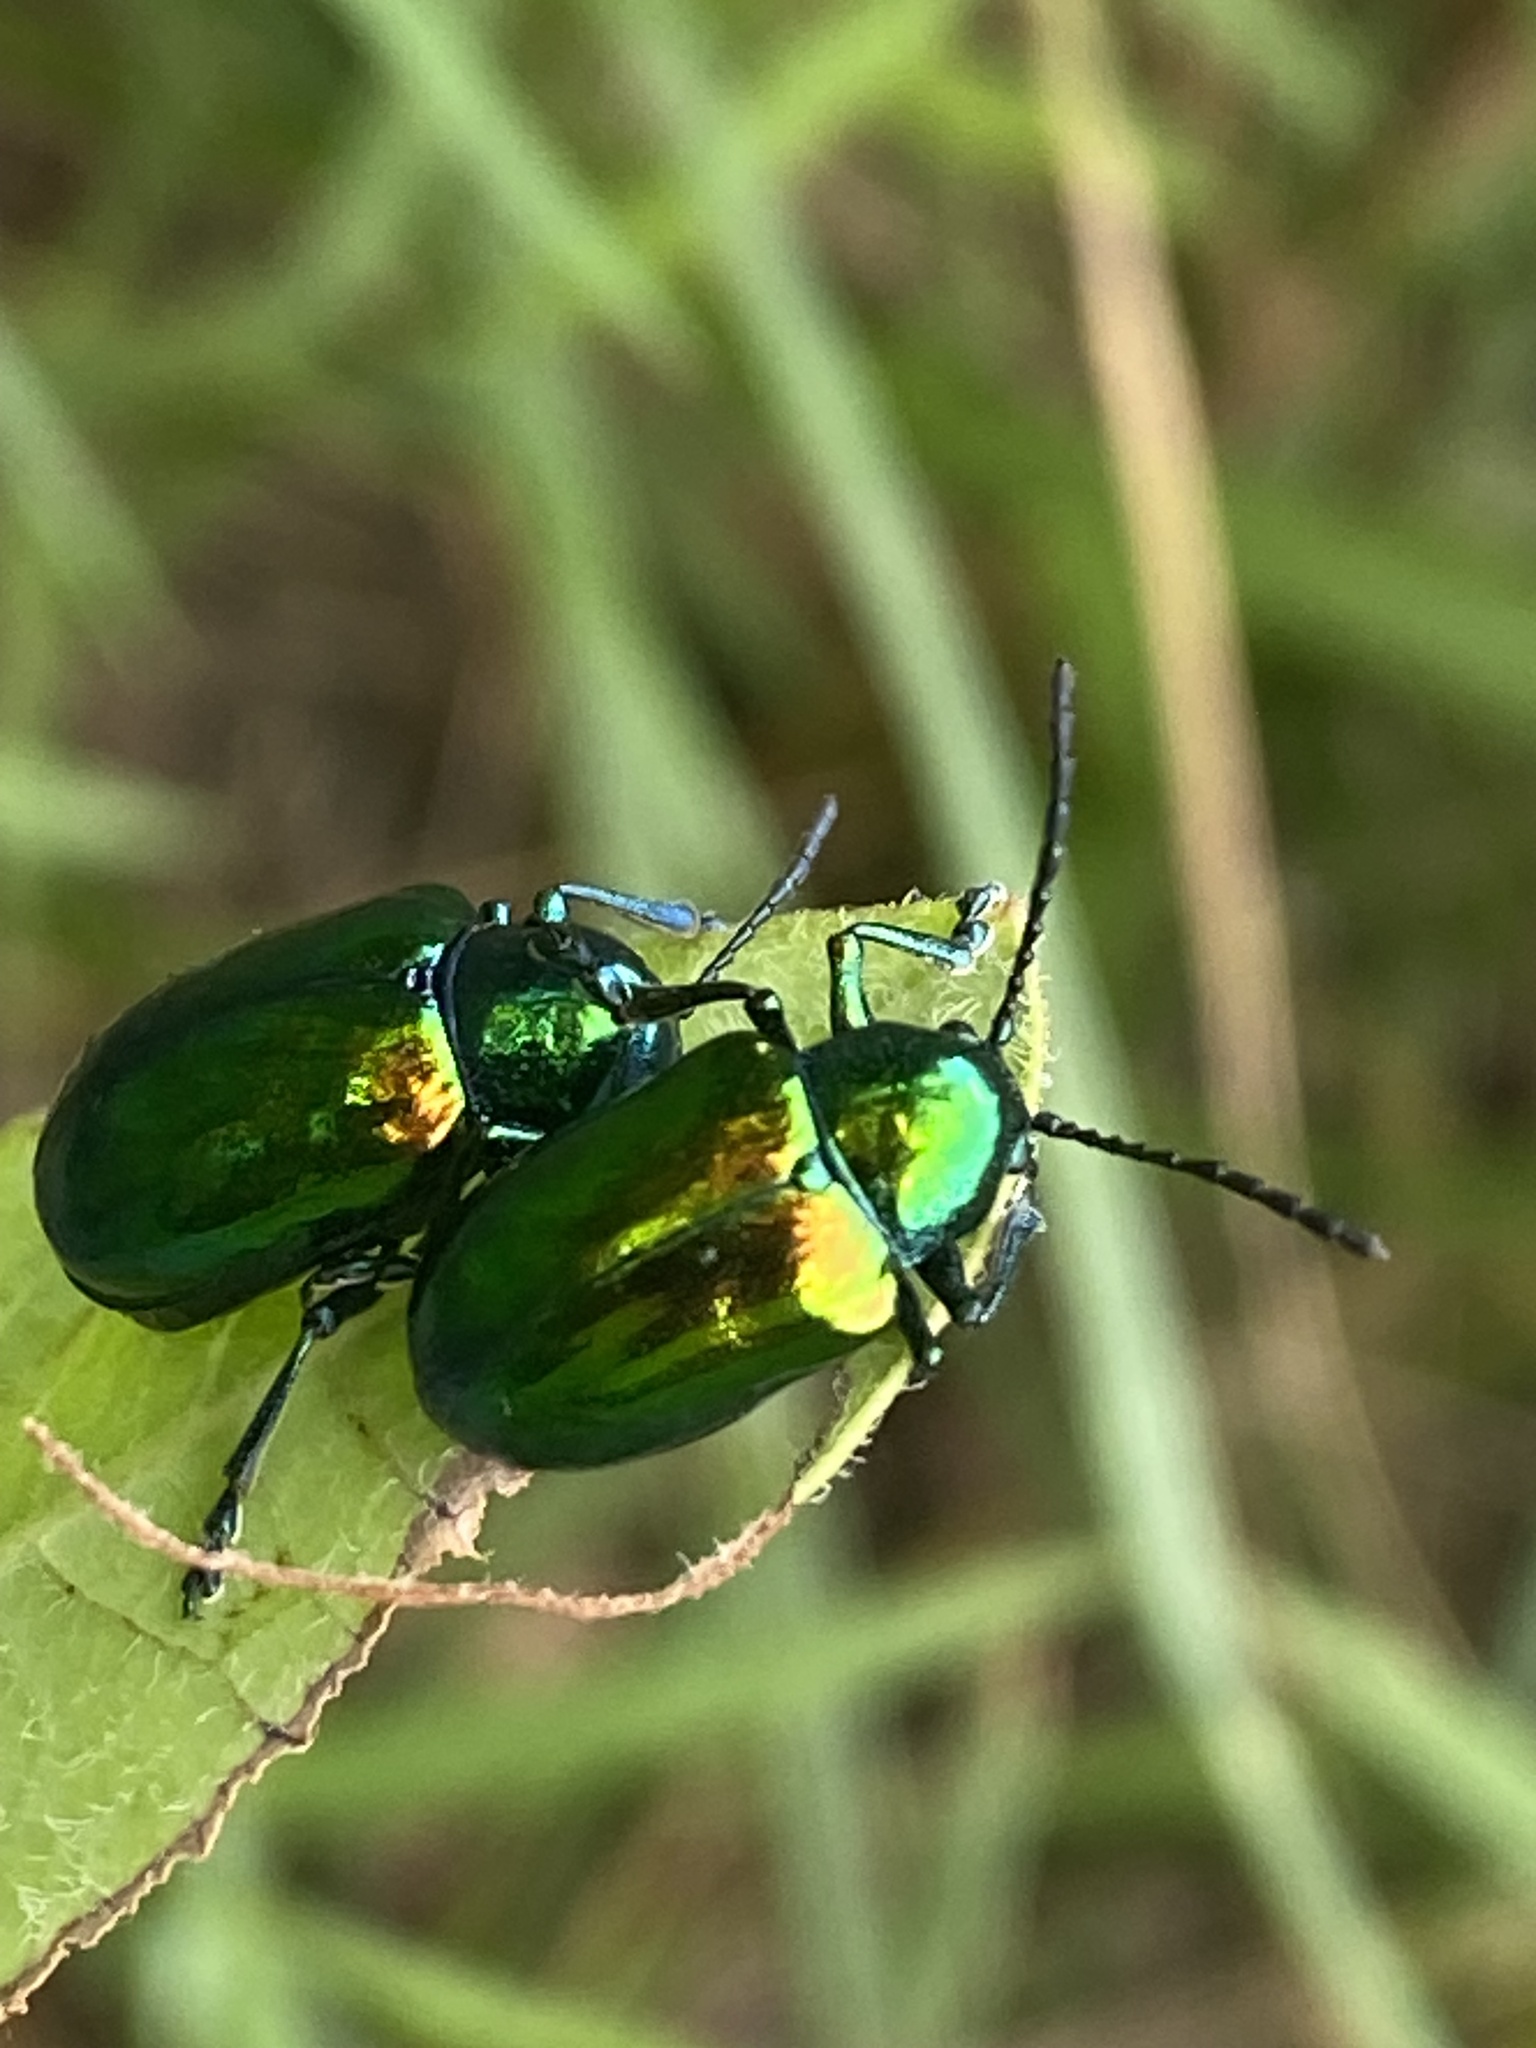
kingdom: Animalia
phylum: Arthropoda
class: Insecta
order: Coleoptera
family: Chrysomelidae
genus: Chrysochus
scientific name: Chrysochus auratus
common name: Dogbane leaf beetle
